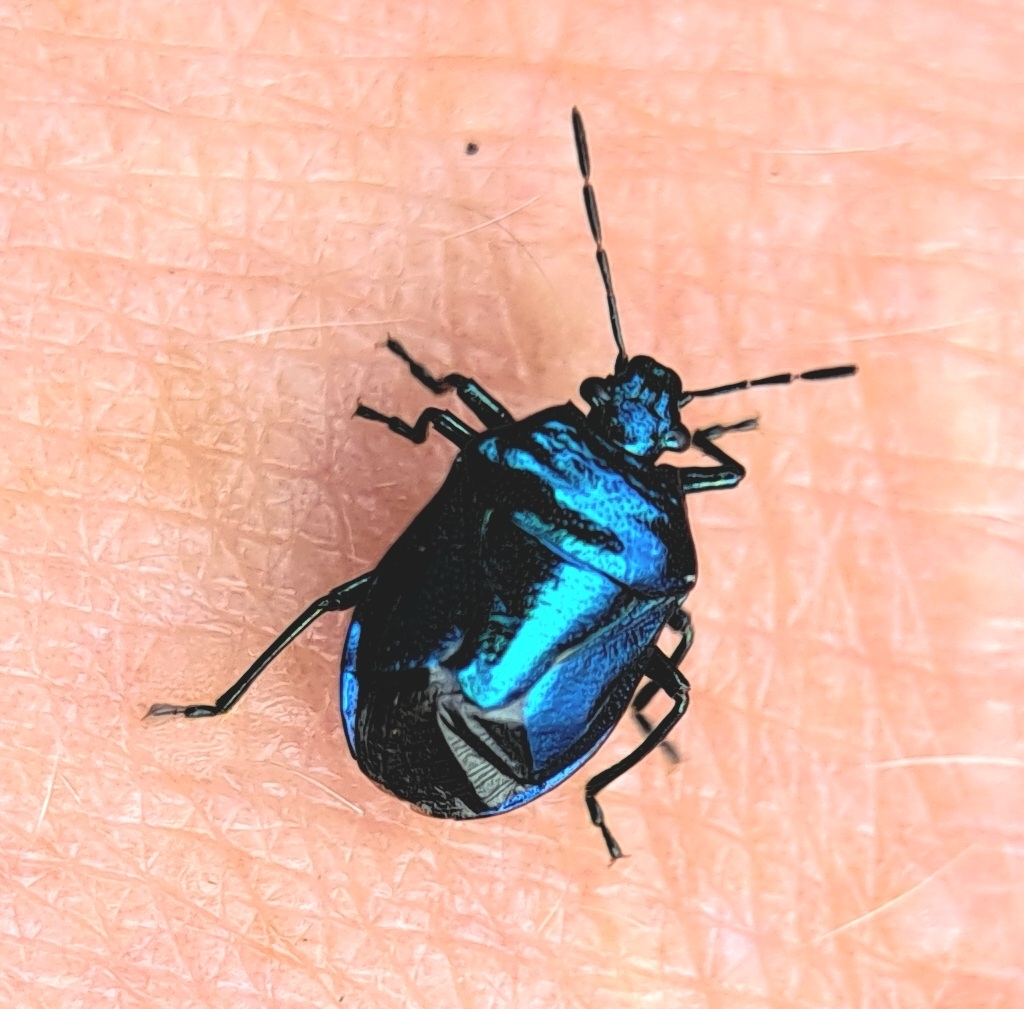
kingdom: Animalia
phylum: Arthropoda
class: Insecta
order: Hemiptera
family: Pentatomidae
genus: Zicrona
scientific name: Zicrona caerulea
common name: Blue shieldbug
